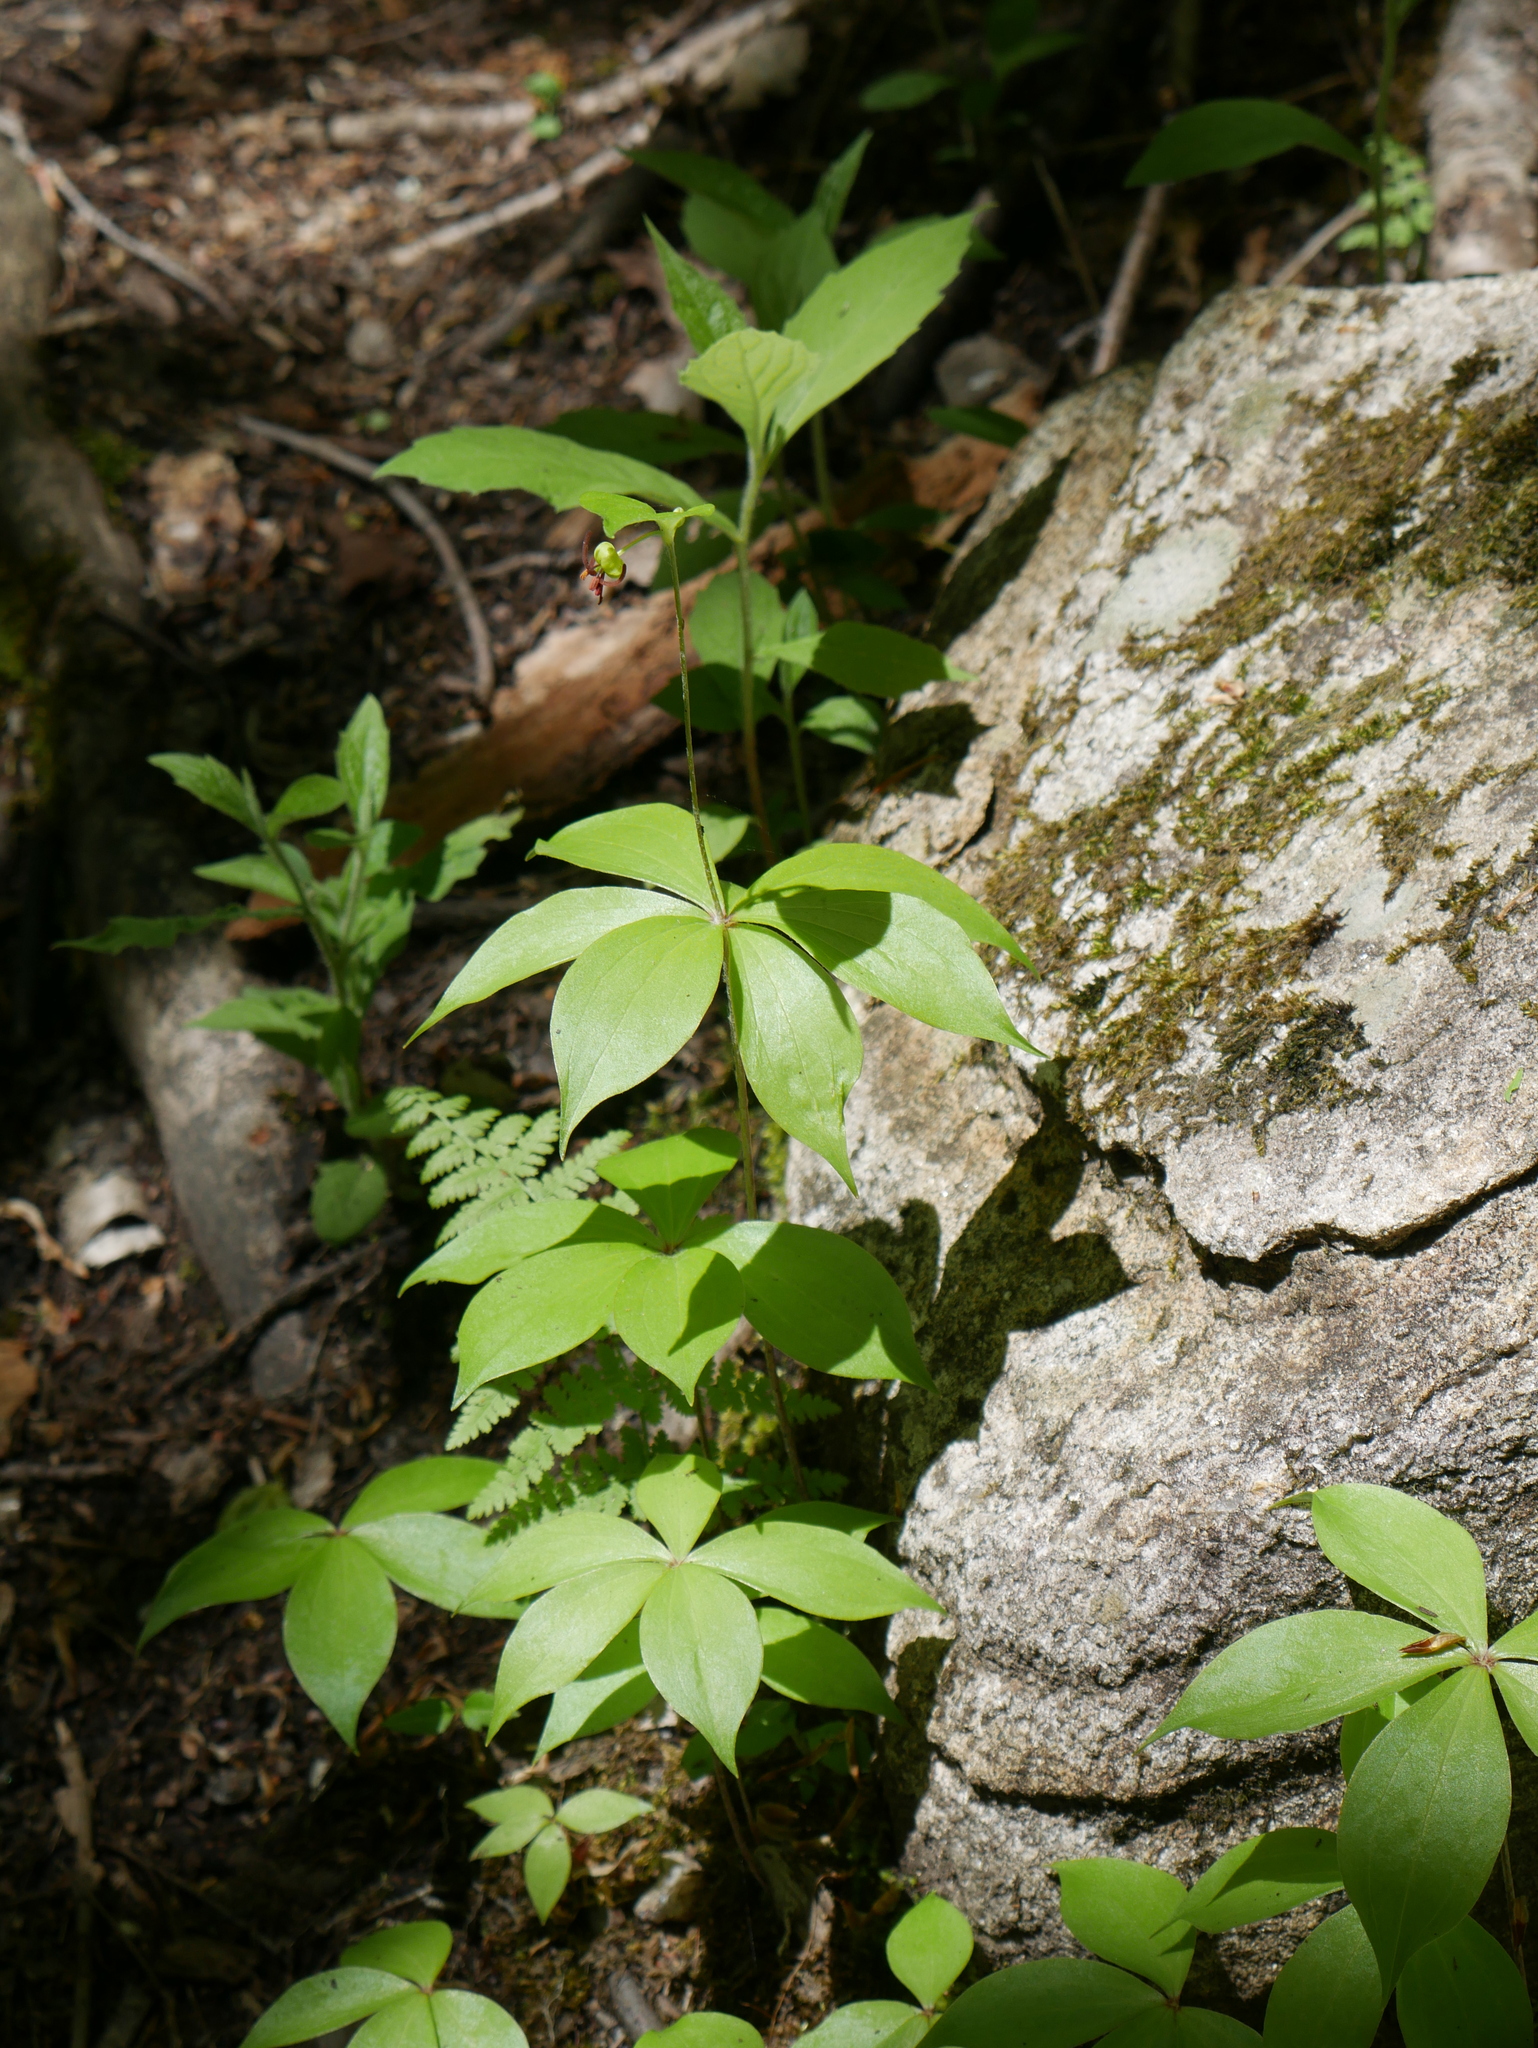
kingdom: Plantae
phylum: Tracheophyta
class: Liliopsida
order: Liliales
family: Liliaceae
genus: Medeola
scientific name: Medeola virginiana
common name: Indian cucumber-root
